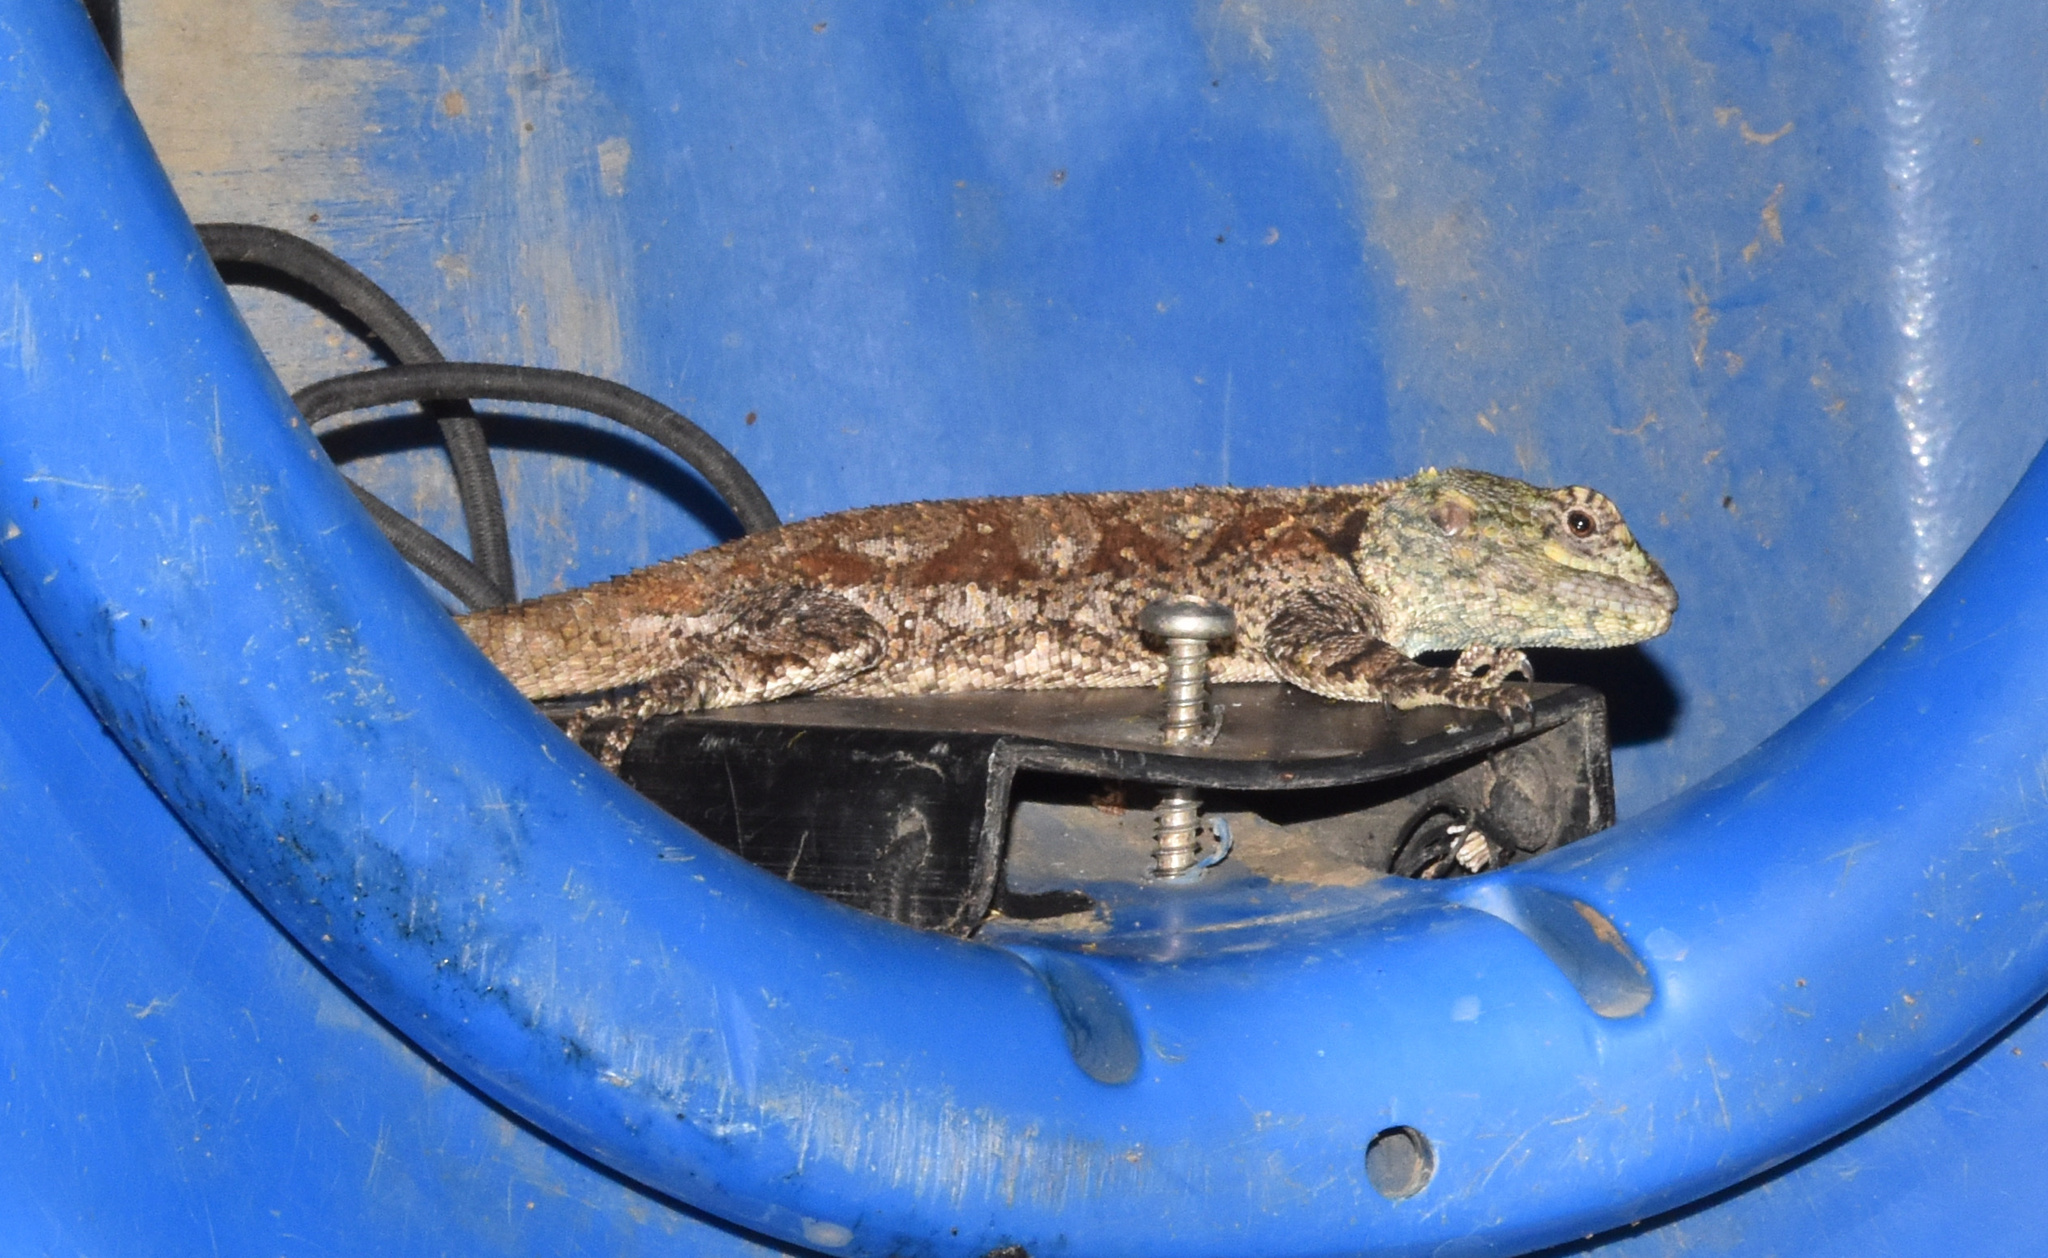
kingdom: Animalia
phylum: Chordata
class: Squamata
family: Agamidae
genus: Acanthocercus
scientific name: Acanthocercus atricollis
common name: Southern tree agama
